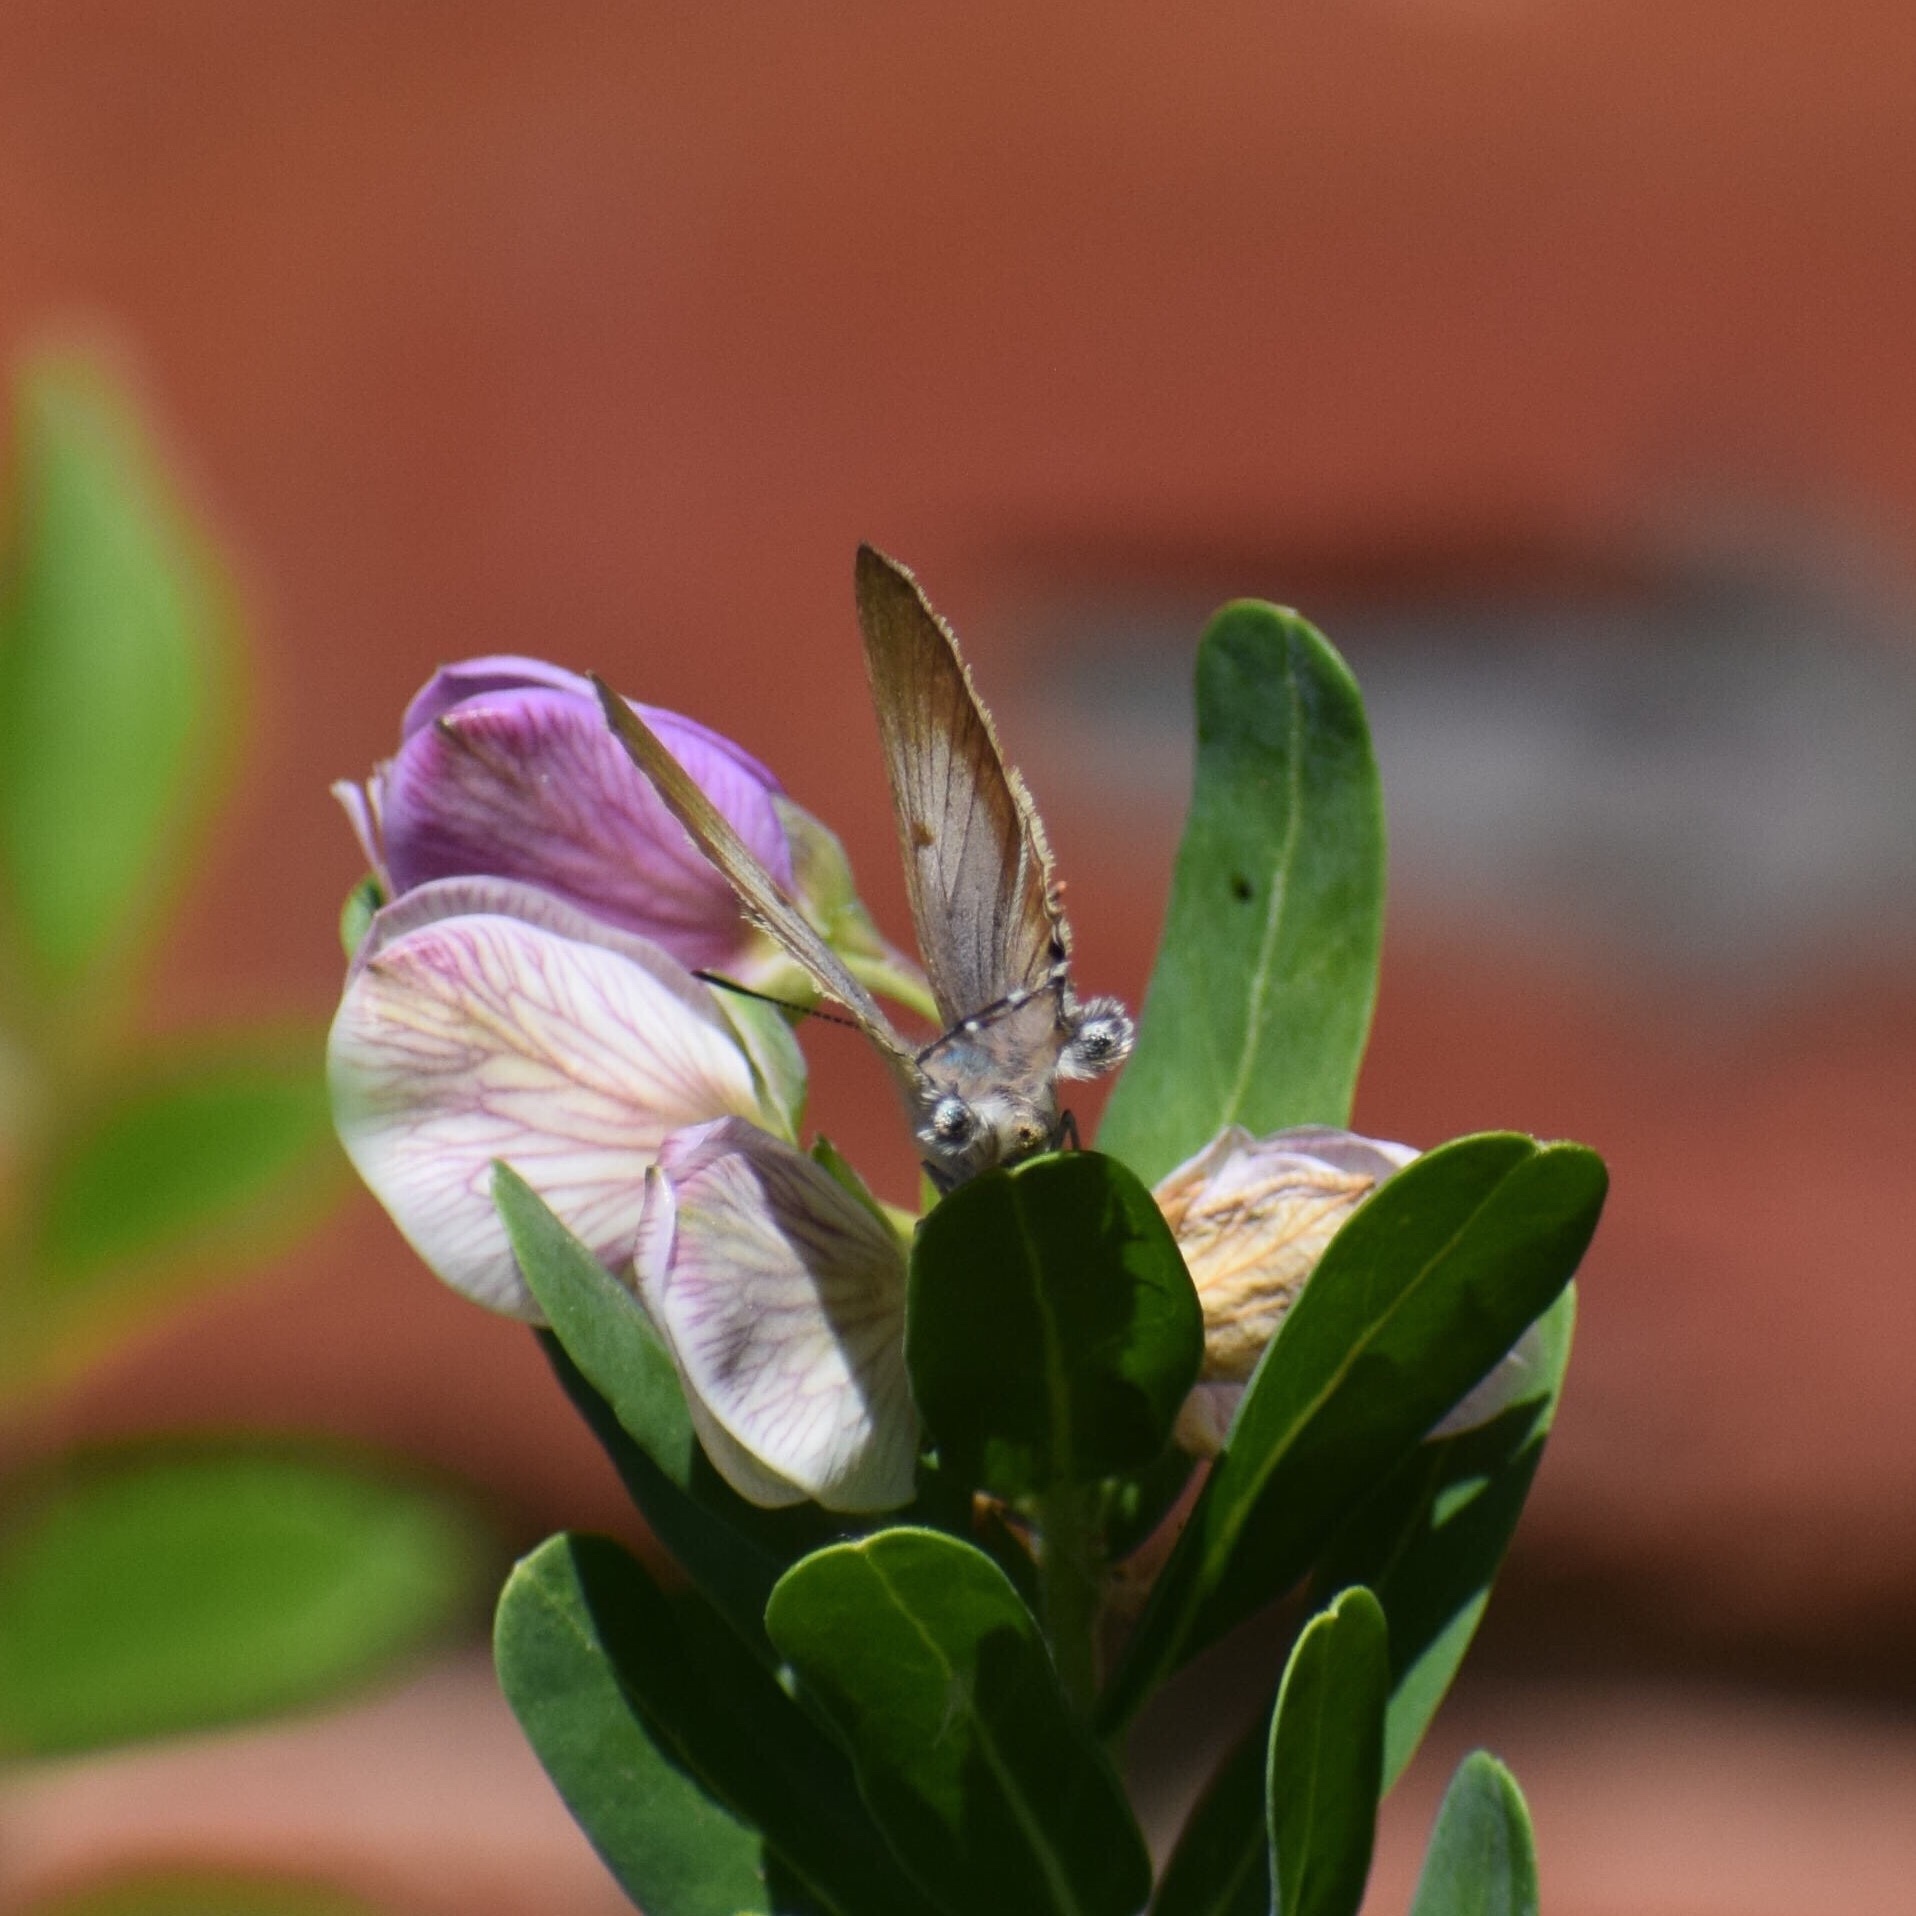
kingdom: Animalia
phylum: Arthropoda
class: Insecta
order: Lepidoptera
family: Lycaenidae
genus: Deudorix
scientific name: Deudorix antalus
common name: Brown playboy
